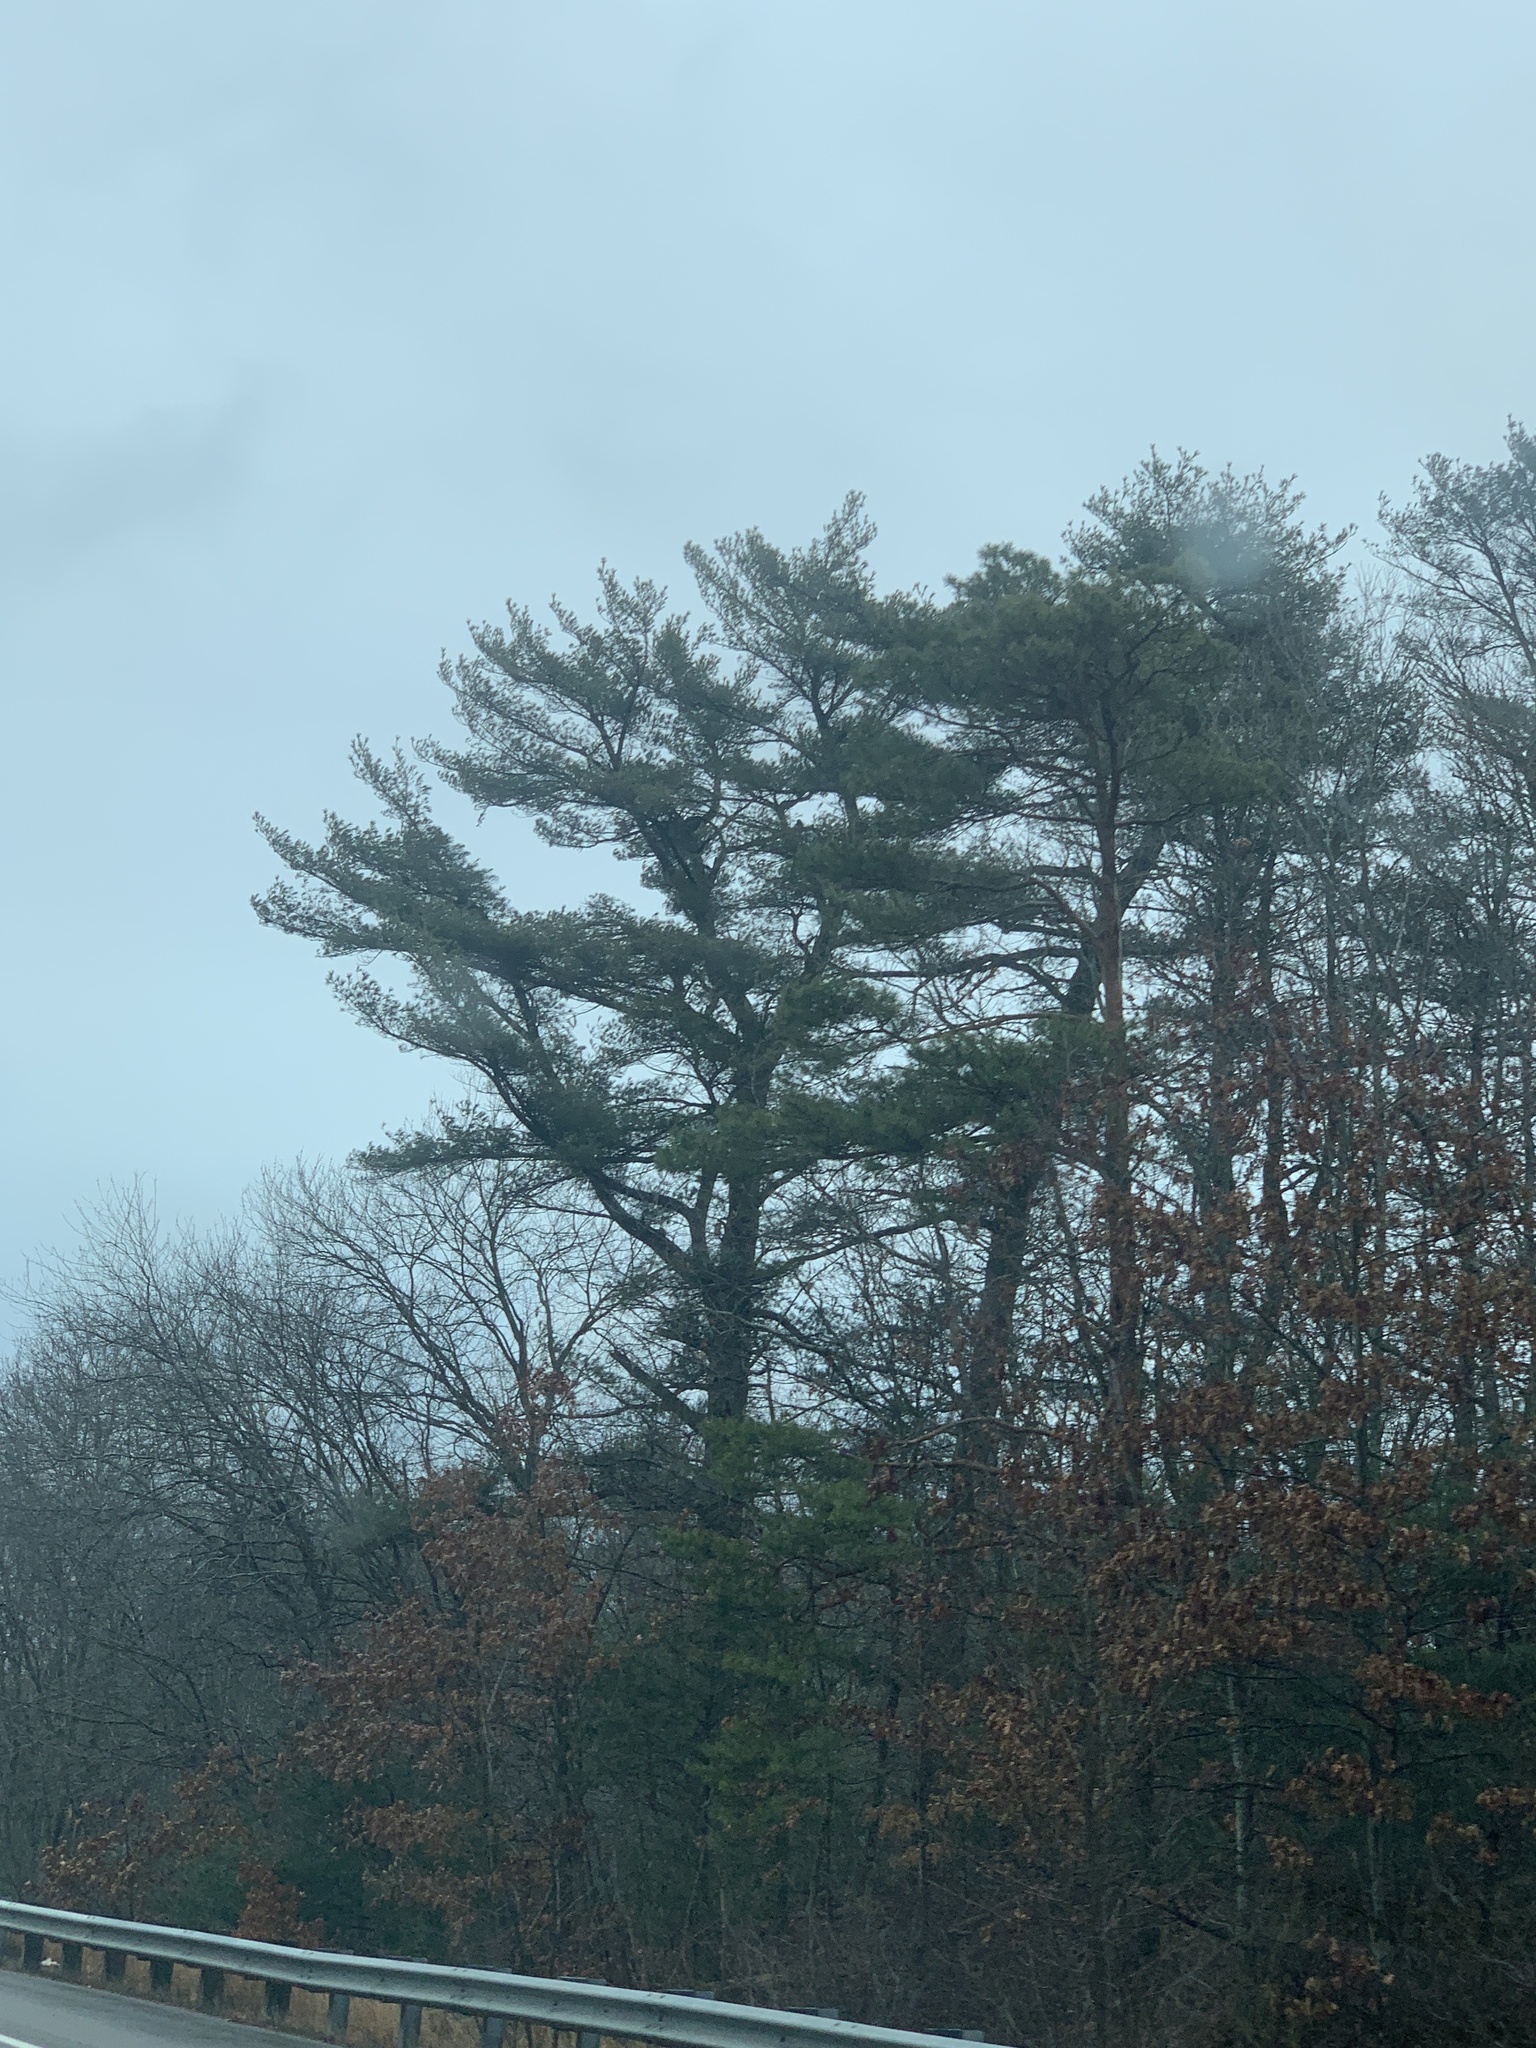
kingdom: Plantae
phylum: Tracheophyta
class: Pinopsida
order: Pinales
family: Pinaceae
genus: Pinus
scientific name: Pinus strobus
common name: Weymouth pine
